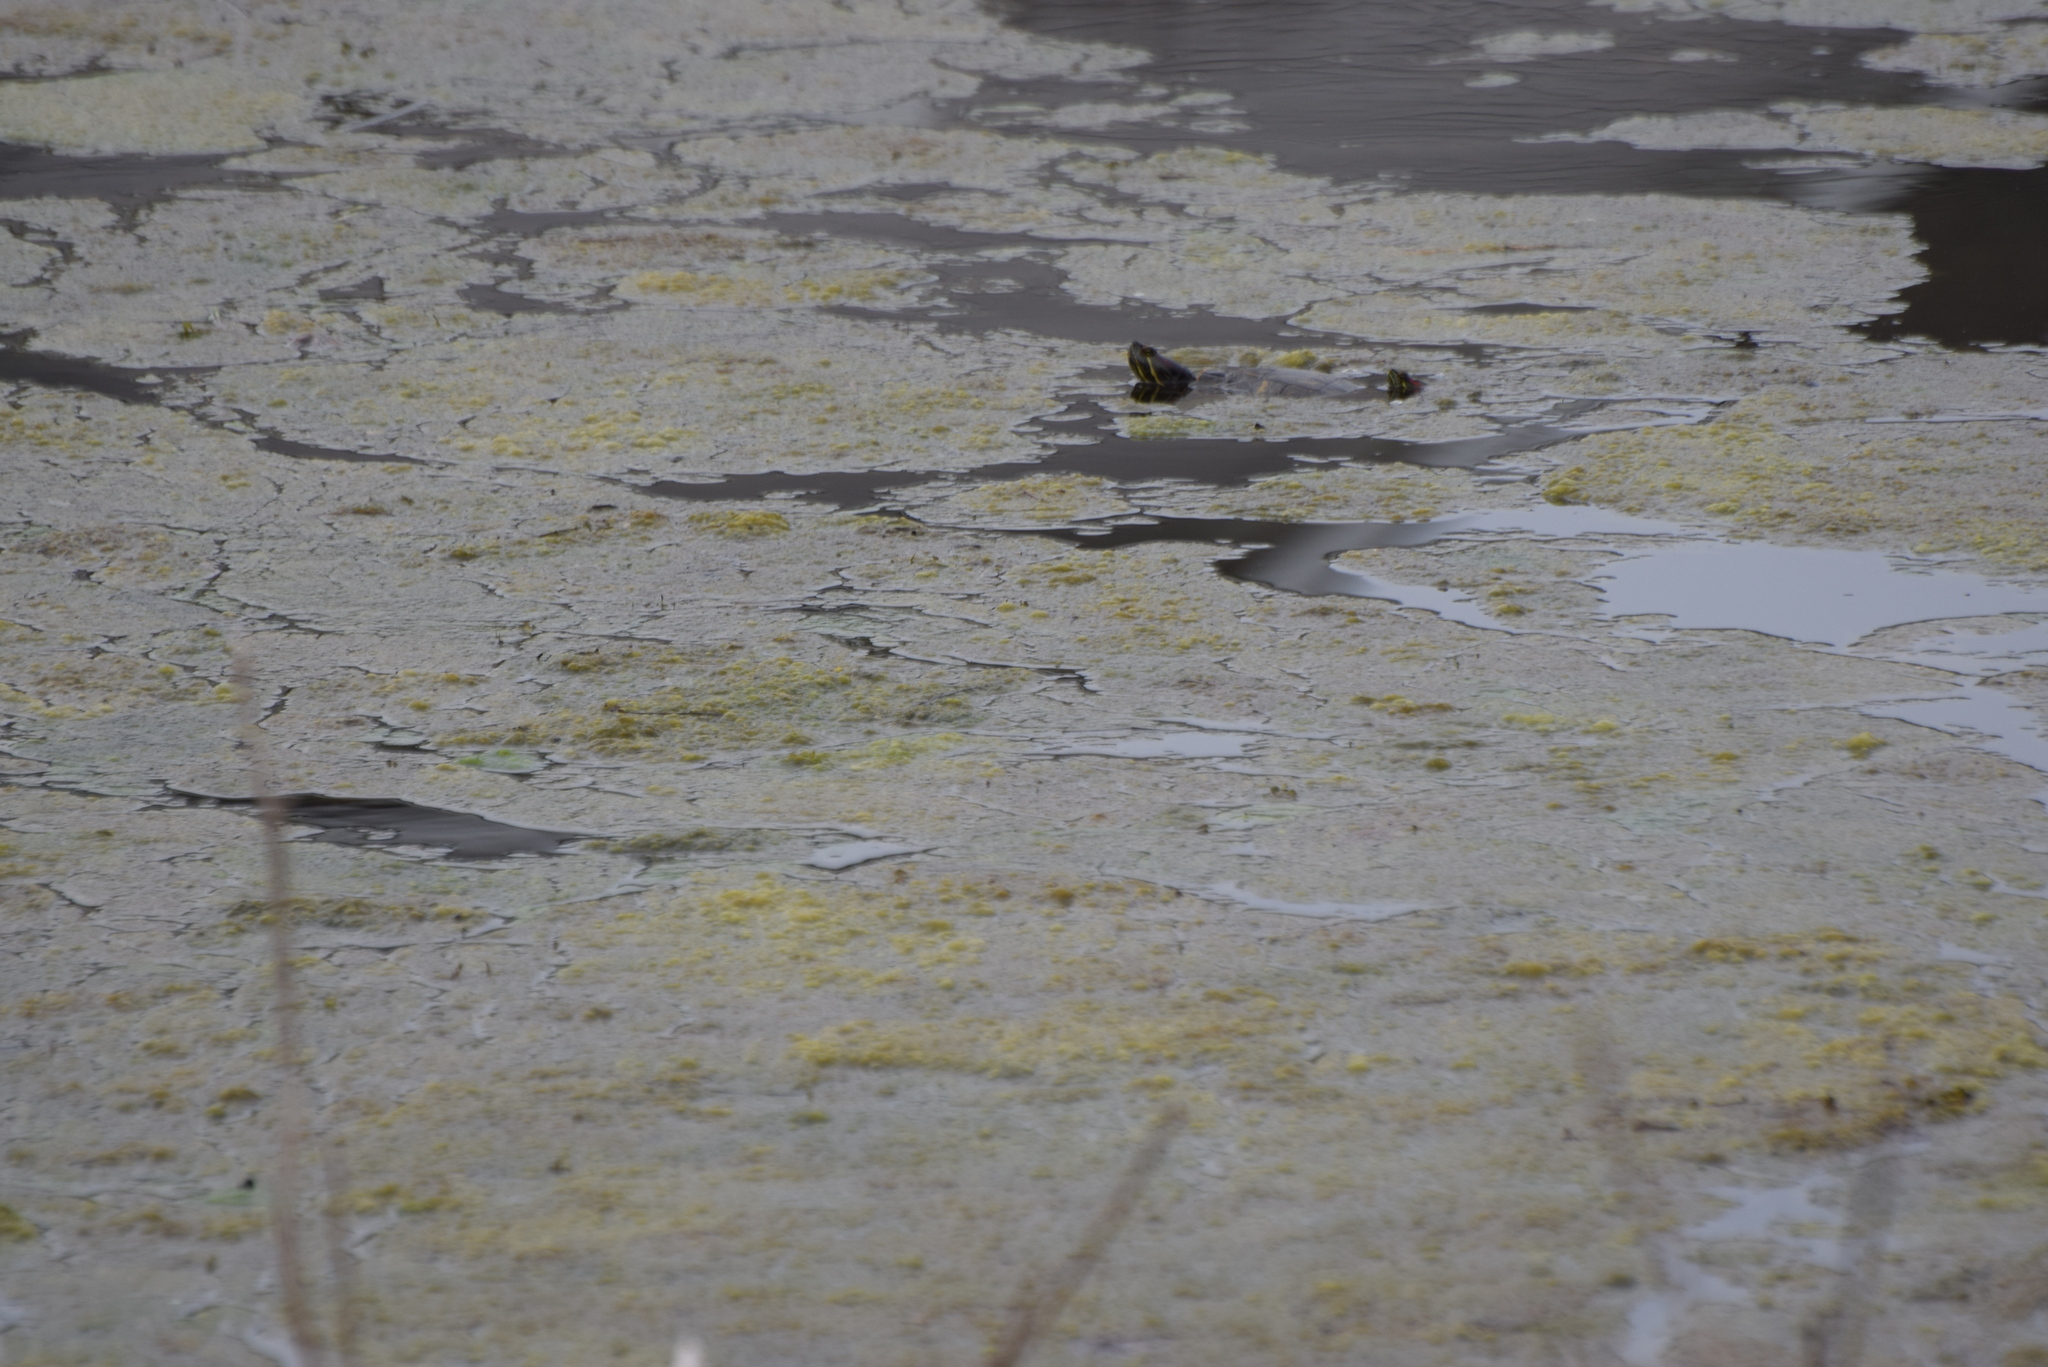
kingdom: Animalia
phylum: Chordata
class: Testudines
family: Emydidae
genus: Trachemys
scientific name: Trachemys scripta
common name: Slider
